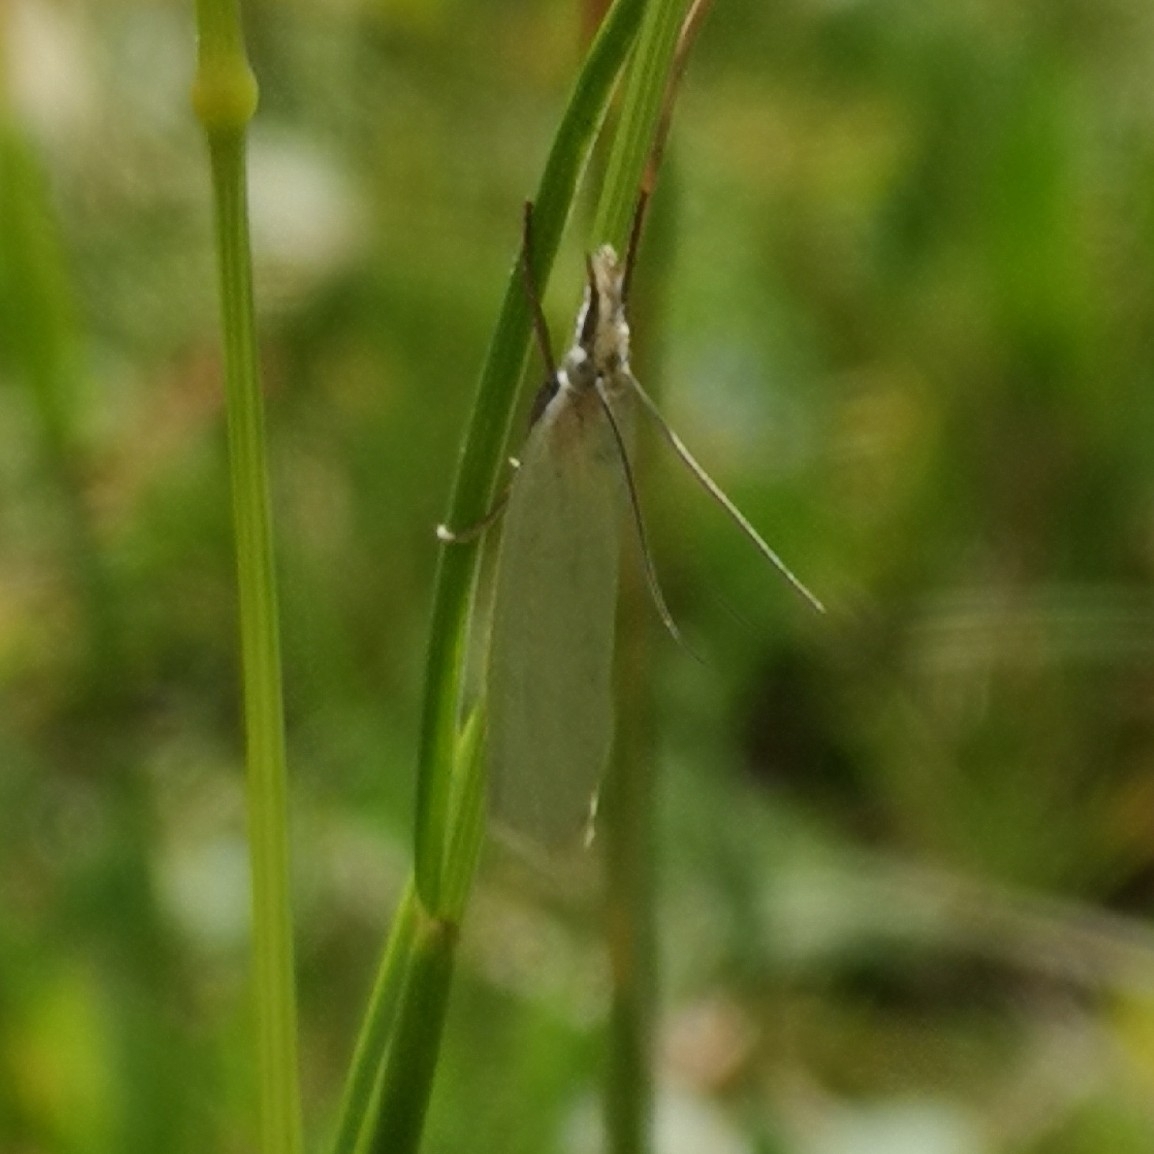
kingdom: Animalia
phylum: Arthropoda
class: Insecta
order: Lepidoptera
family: Crambidae
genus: Crambus
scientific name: Crambus perlellus
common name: Yellow satin veneer
